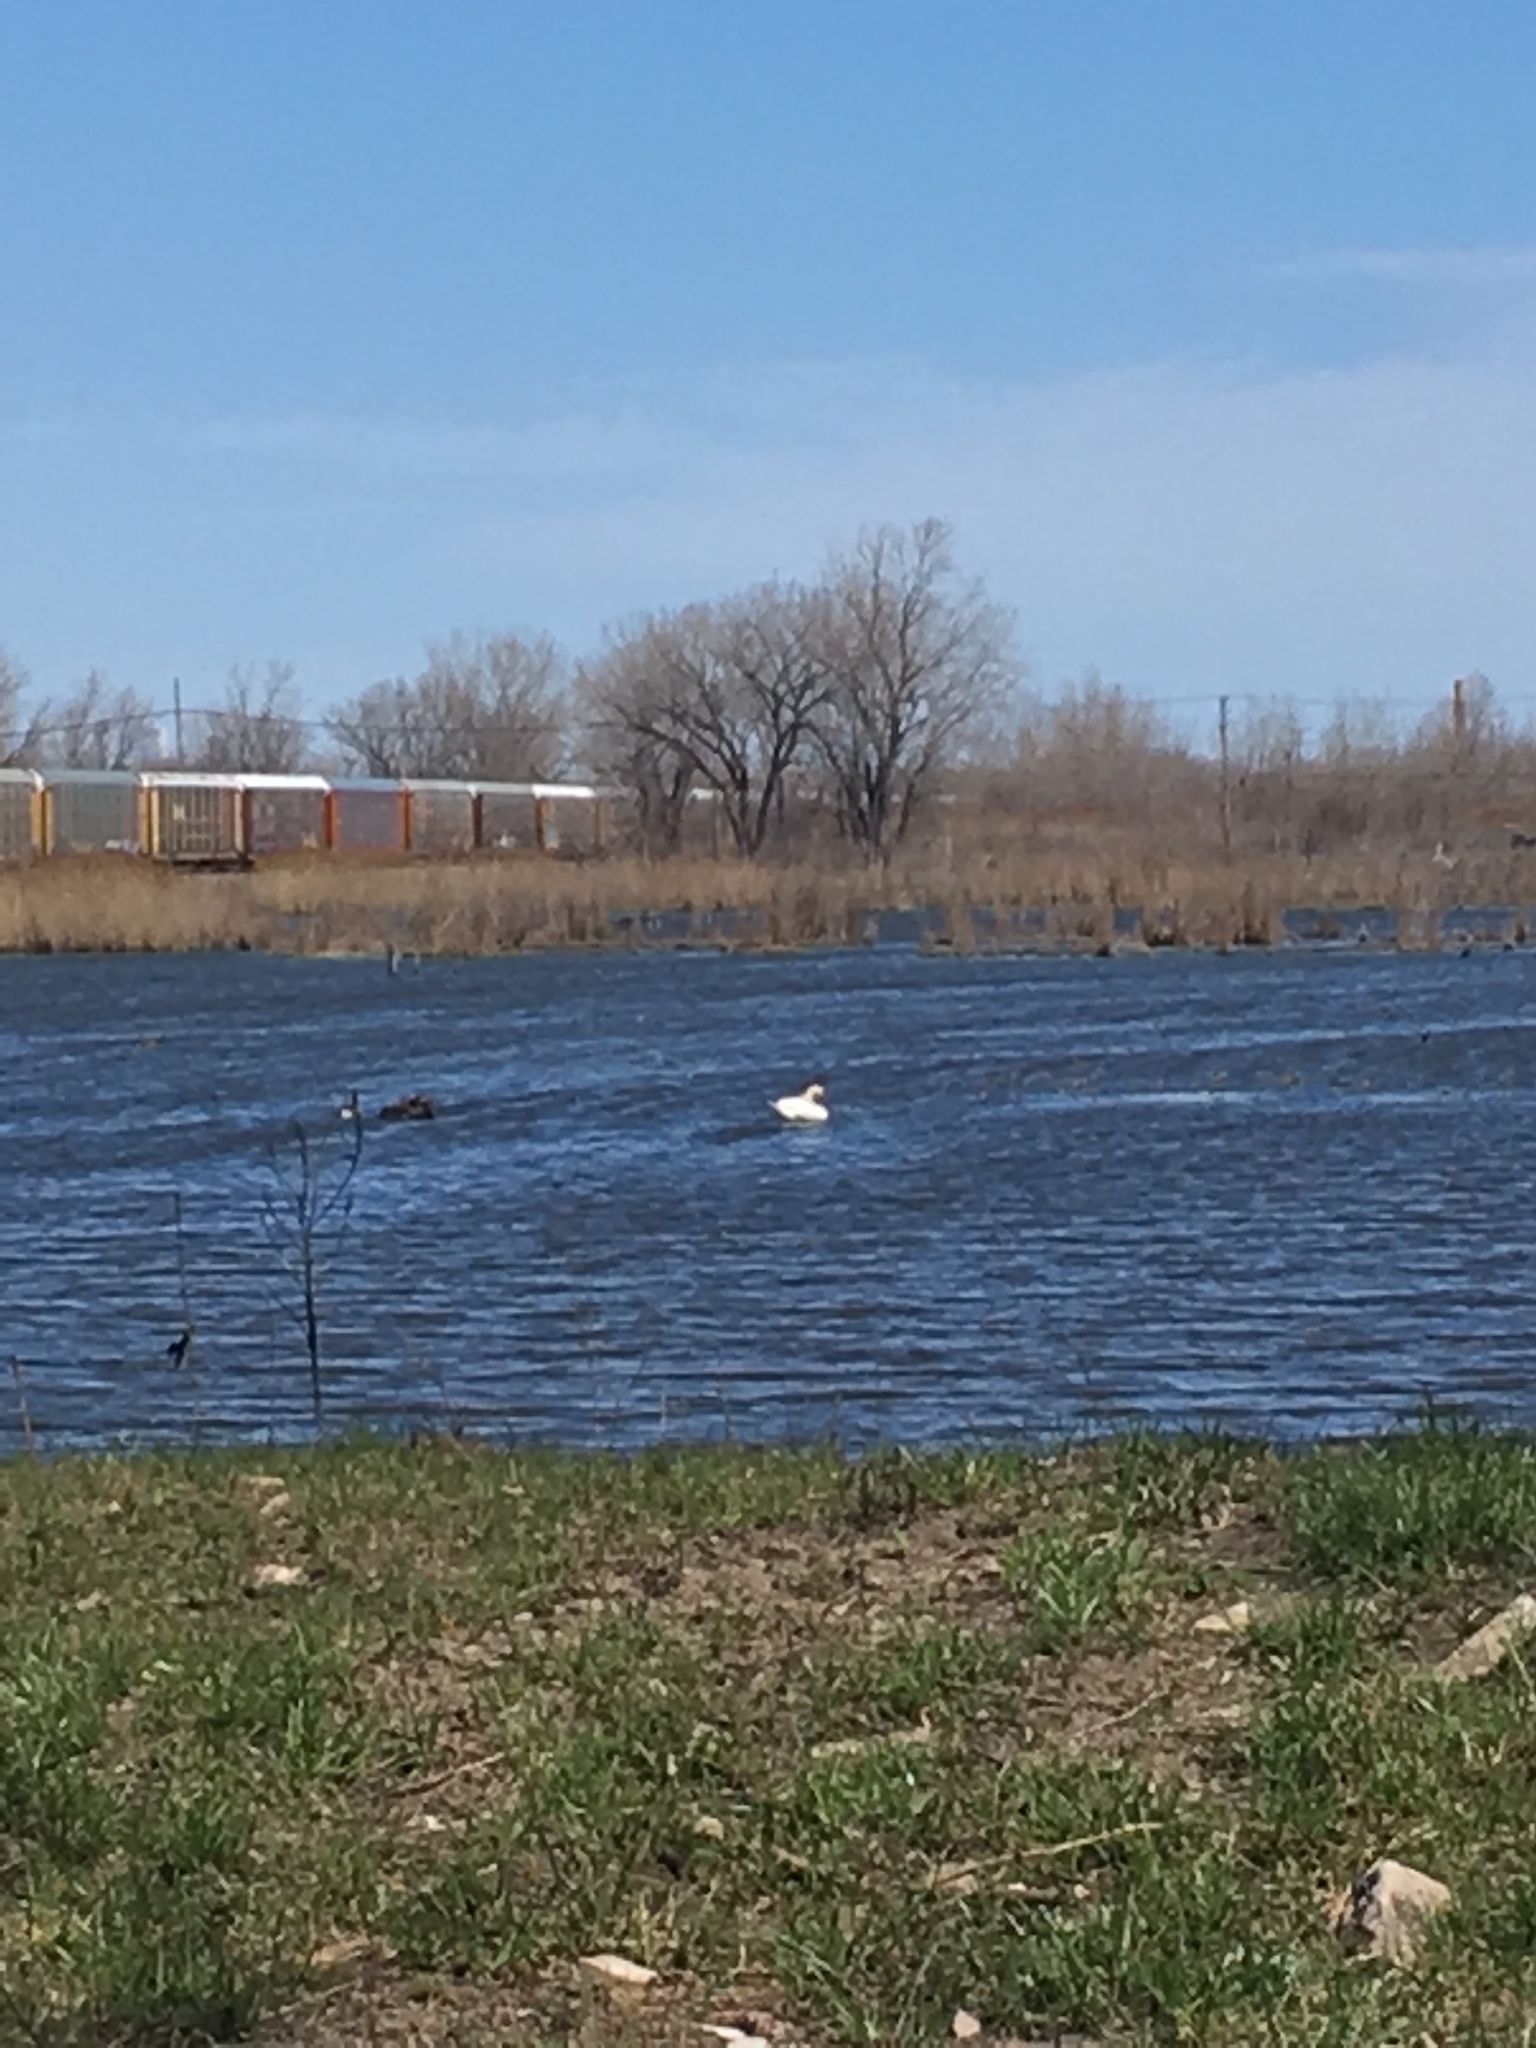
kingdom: Animalia
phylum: Chordata
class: Aves
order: Anseriformes
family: Anatidae
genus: Cygnus
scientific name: Cygnus olor
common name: Mute swan
